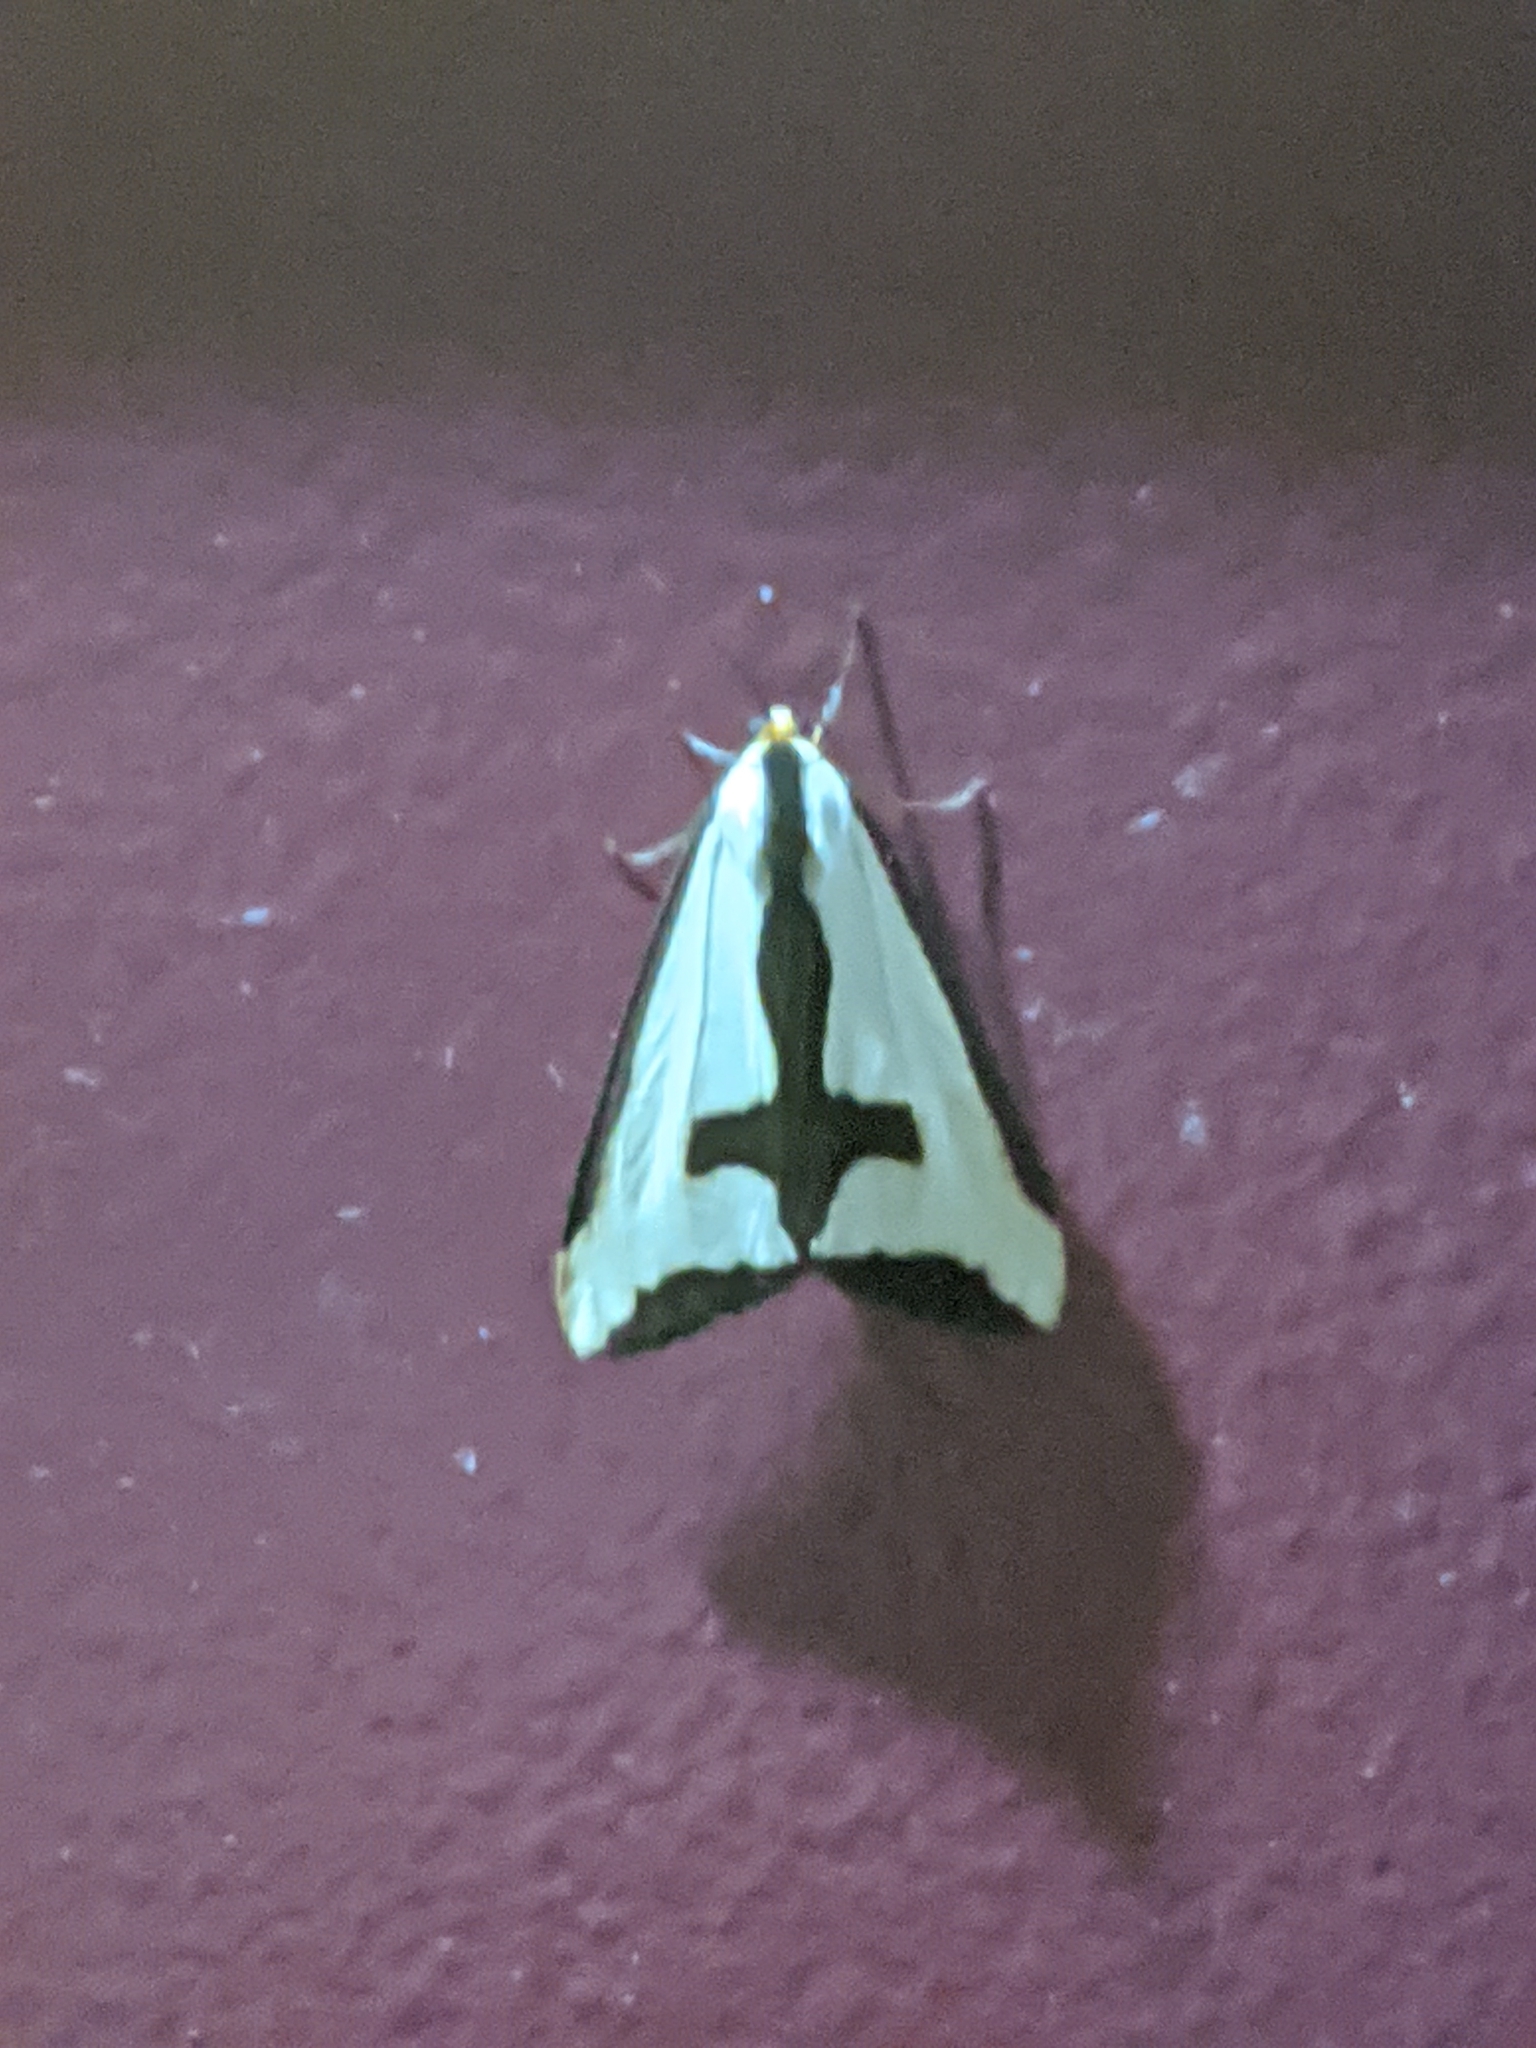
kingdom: Animalia
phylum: Arthropoda
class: Insecta
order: Lepidoptera
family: Erebidae
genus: Haploa
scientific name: Haploa clymene
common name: Clymene moth
